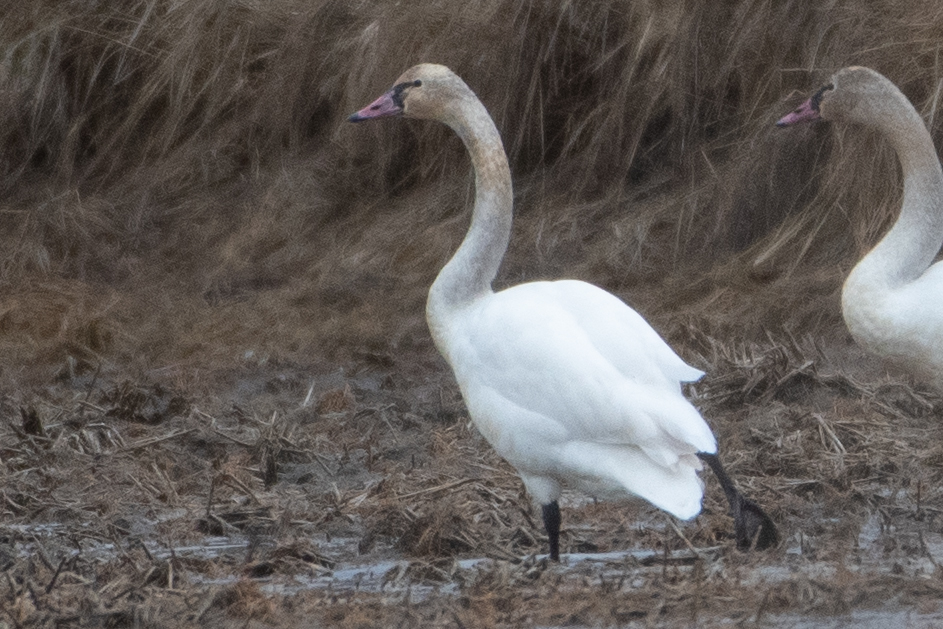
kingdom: Animalia
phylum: Chordata
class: Aves
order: Anseriformes
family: Anatidae
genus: Cygnus
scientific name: Cygnus columbianus
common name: Tundra swan
